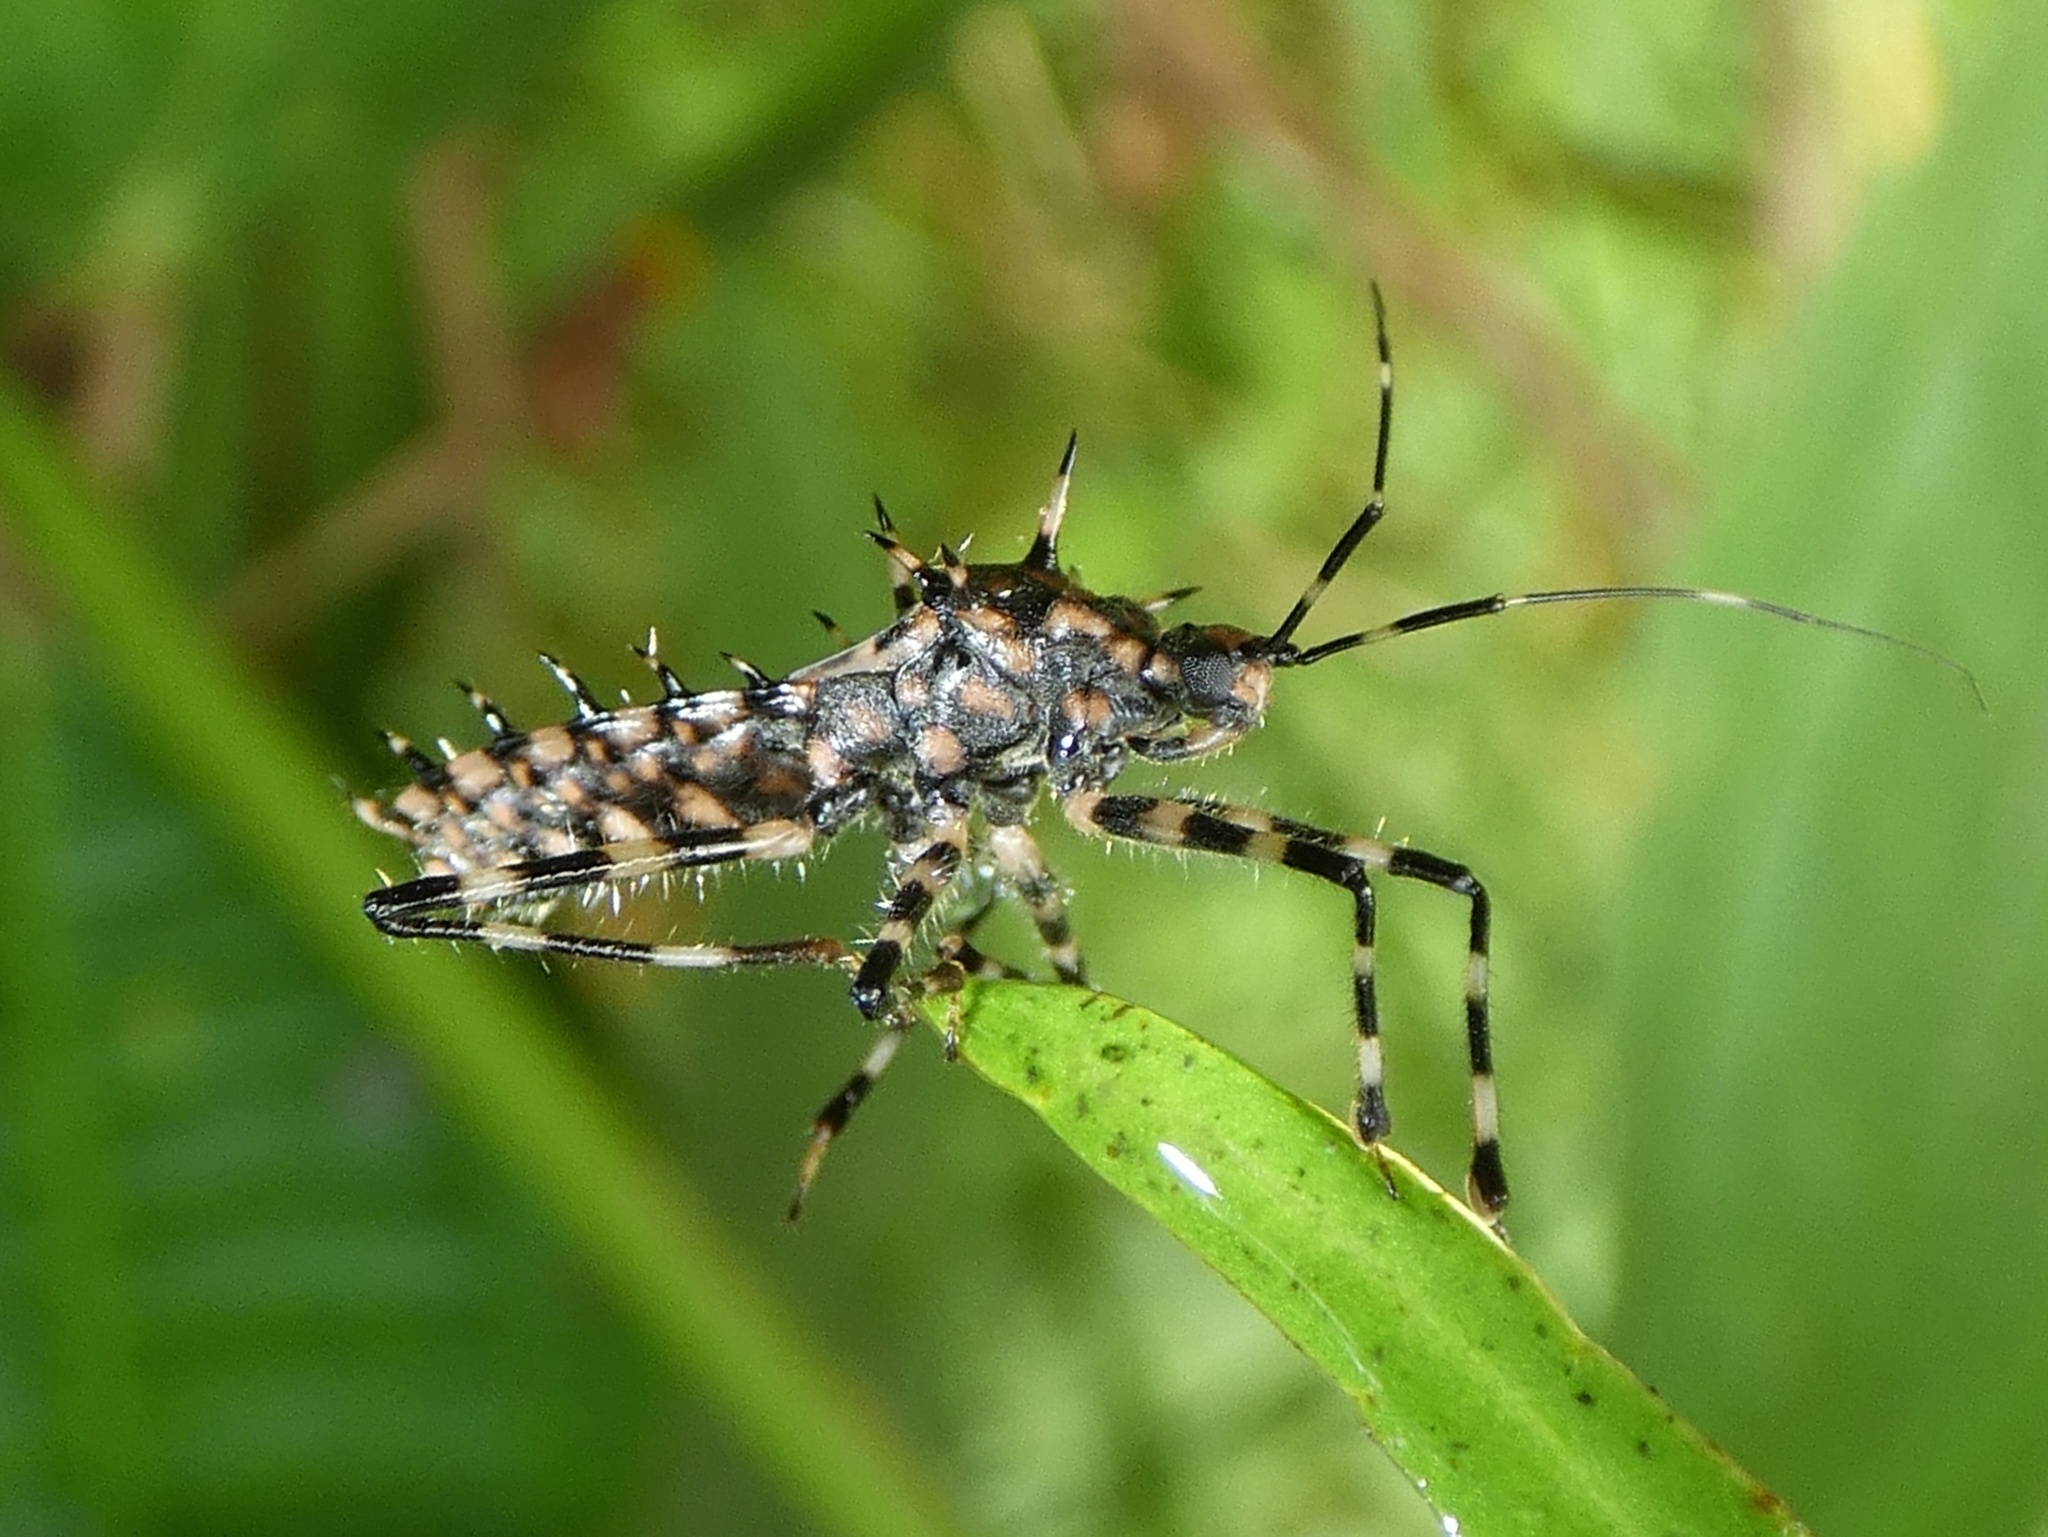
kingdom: Animalia
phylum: Arthropoda
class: Insecta
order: Hemiptera
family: Reduviidae
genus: Salyavata
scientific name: Salyavata englemani
